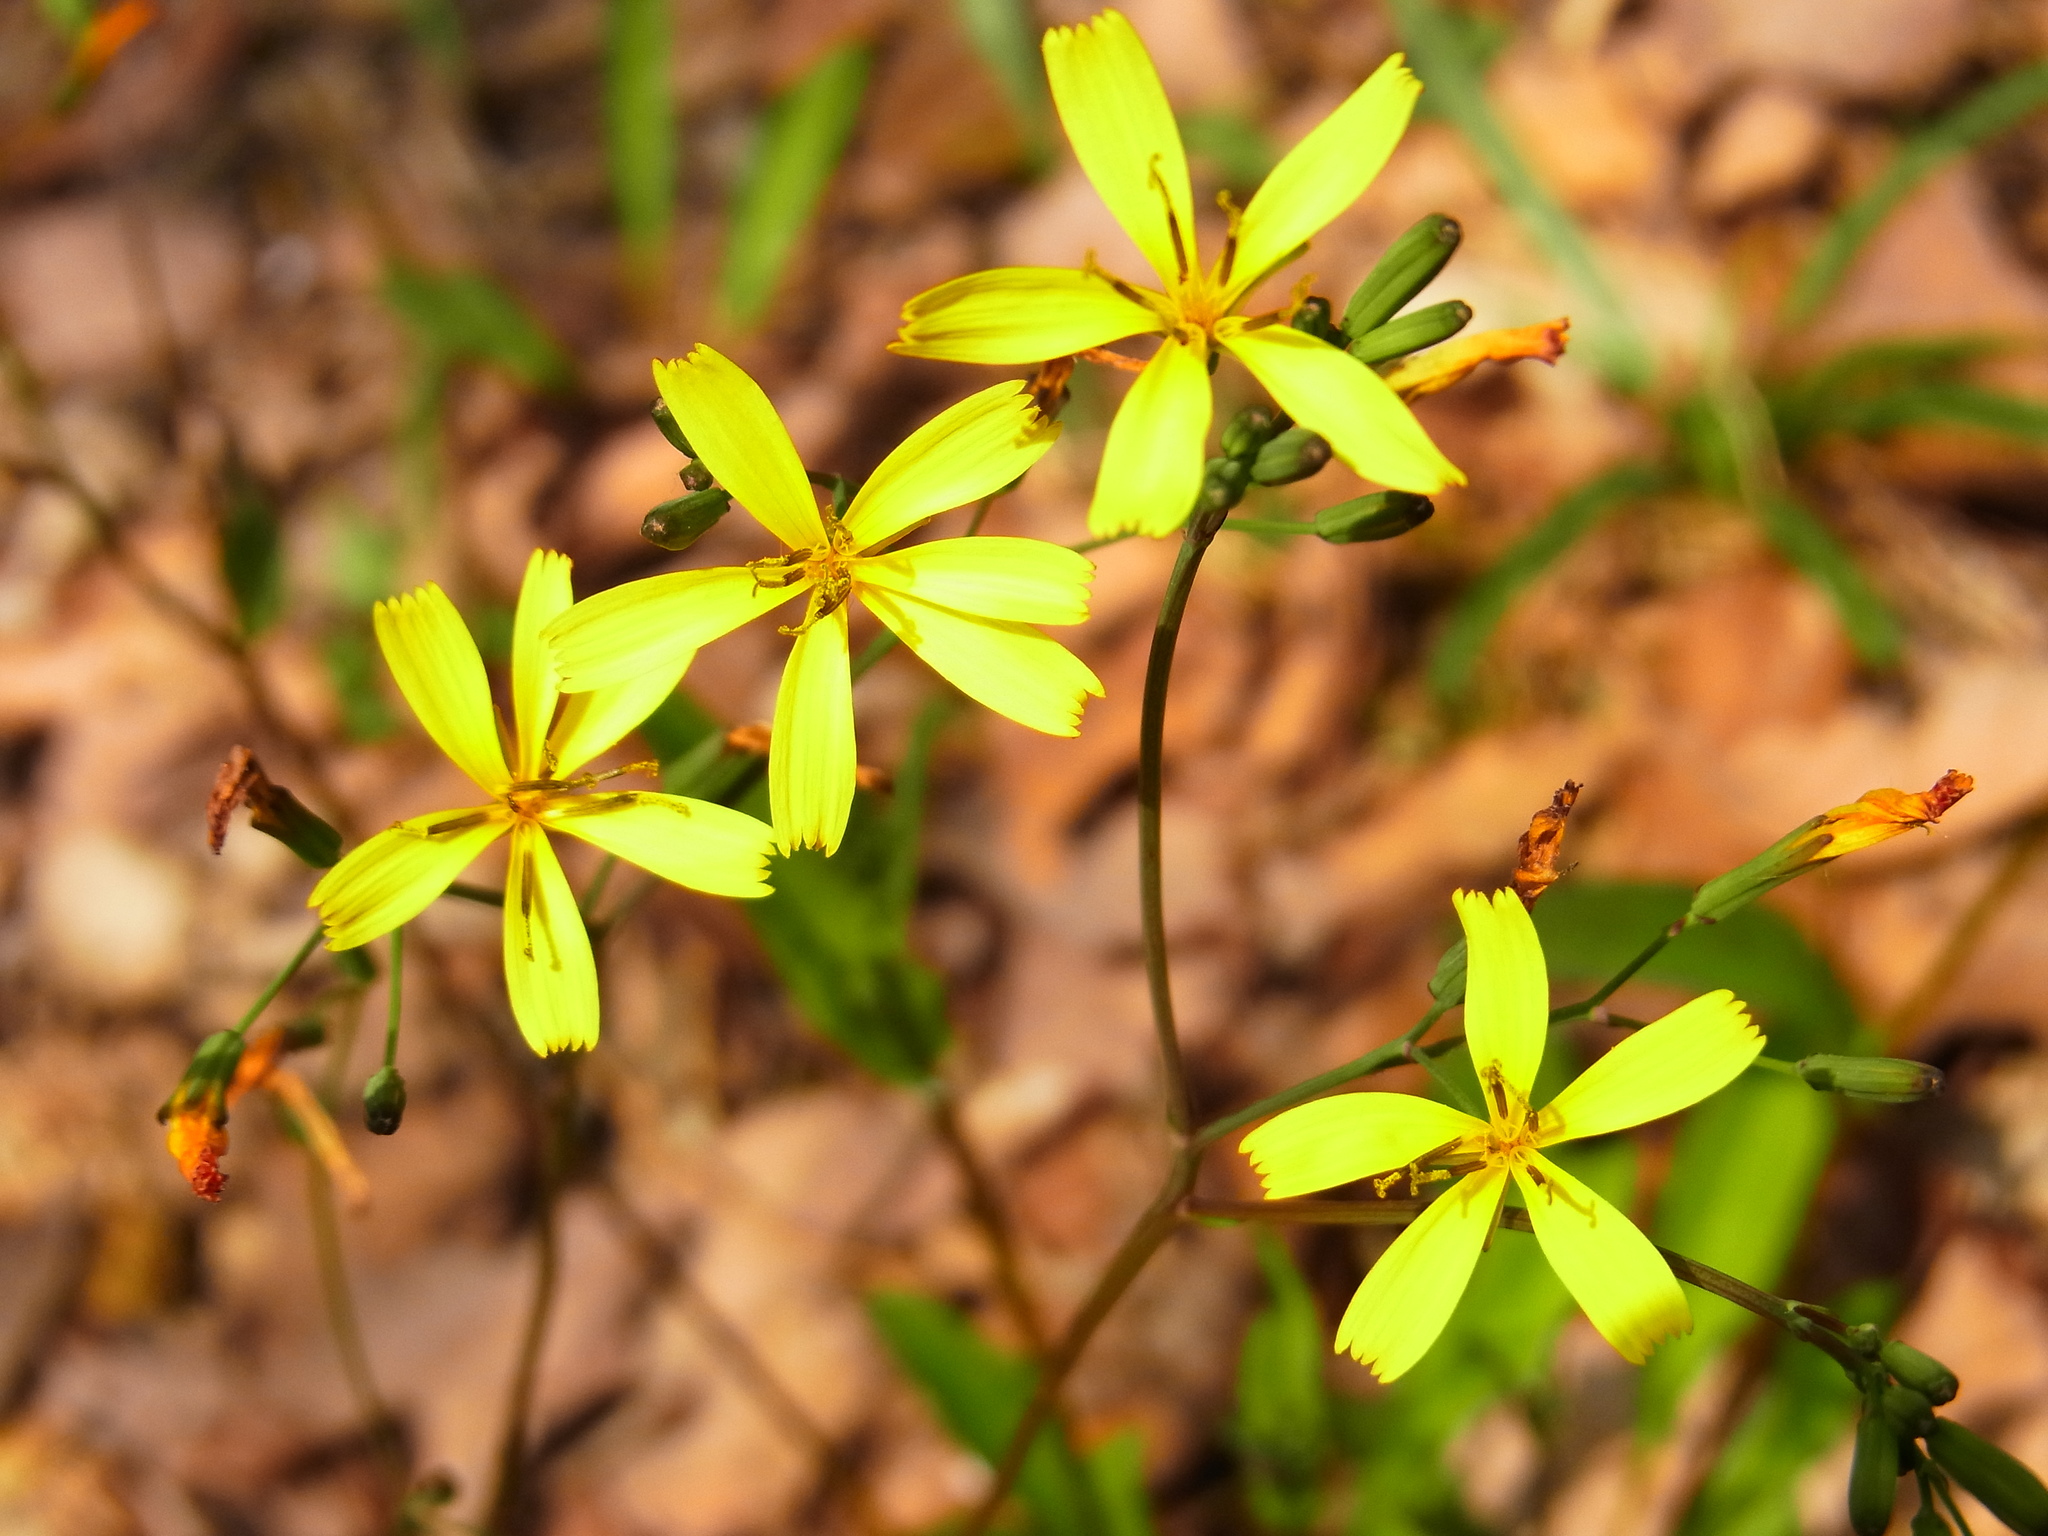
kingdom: Plantae
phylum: Tracheophyta
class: Magnoliopsida
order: Asterales
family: Asteraceae
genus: Ixeridium
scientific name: Ixeridium dentatum
